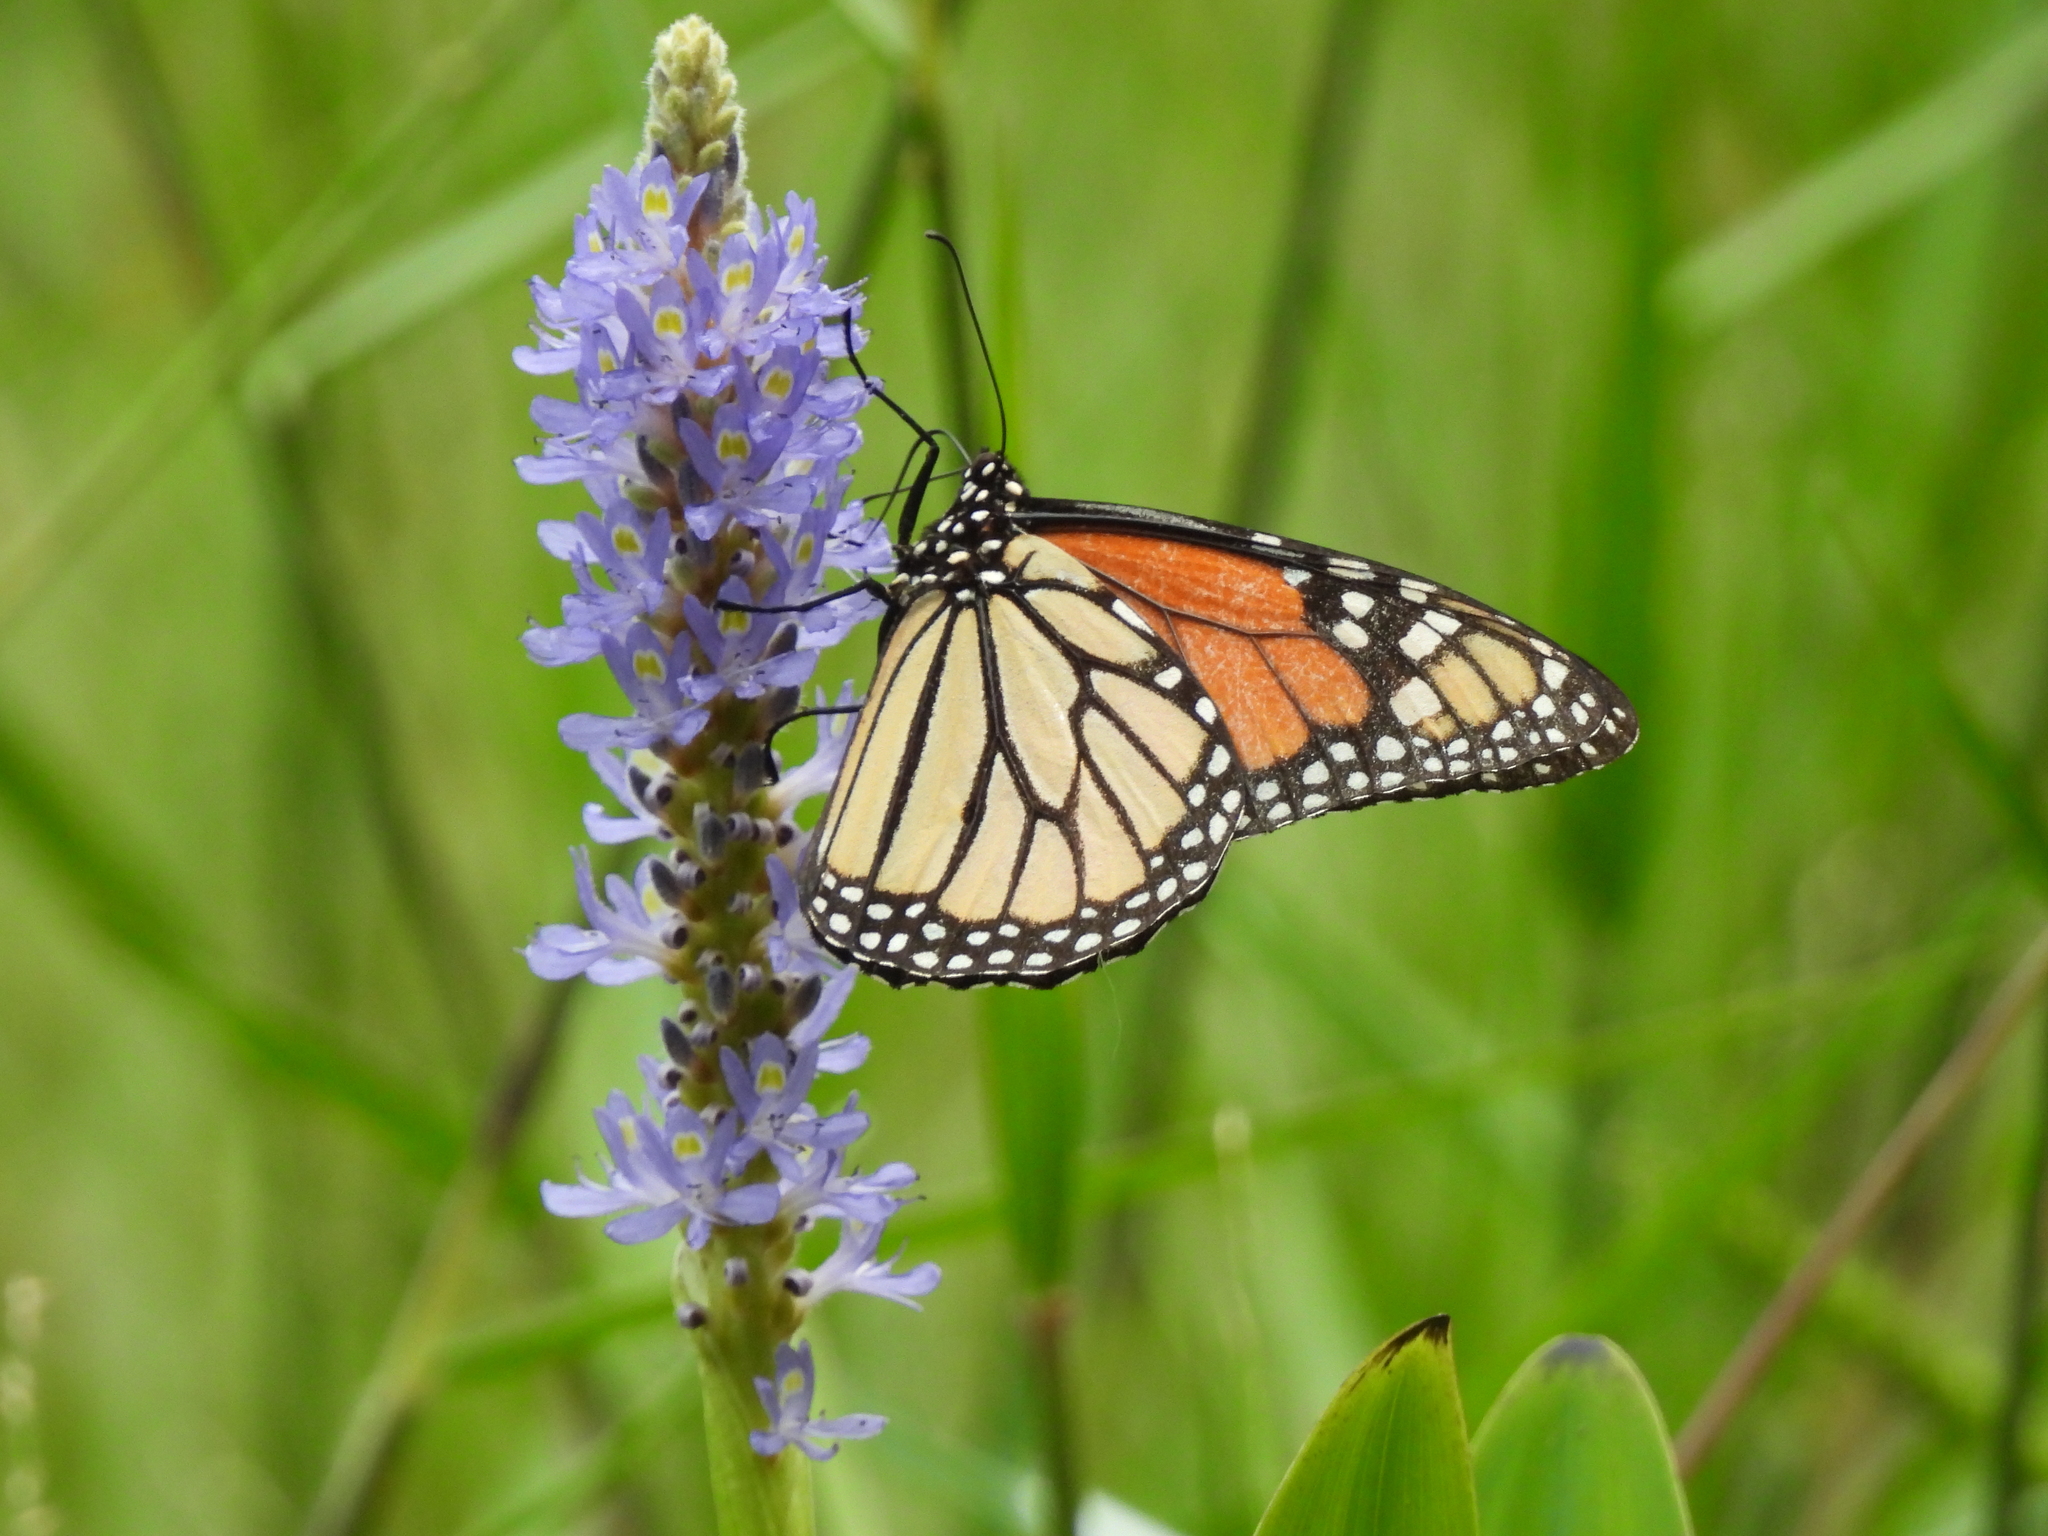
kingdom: Animalia
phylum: Arthropoda
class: Insecta
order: Lepidoptera
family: Nymphalidae
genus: Danaus
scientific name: Danaus plexippus
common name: Monarch
